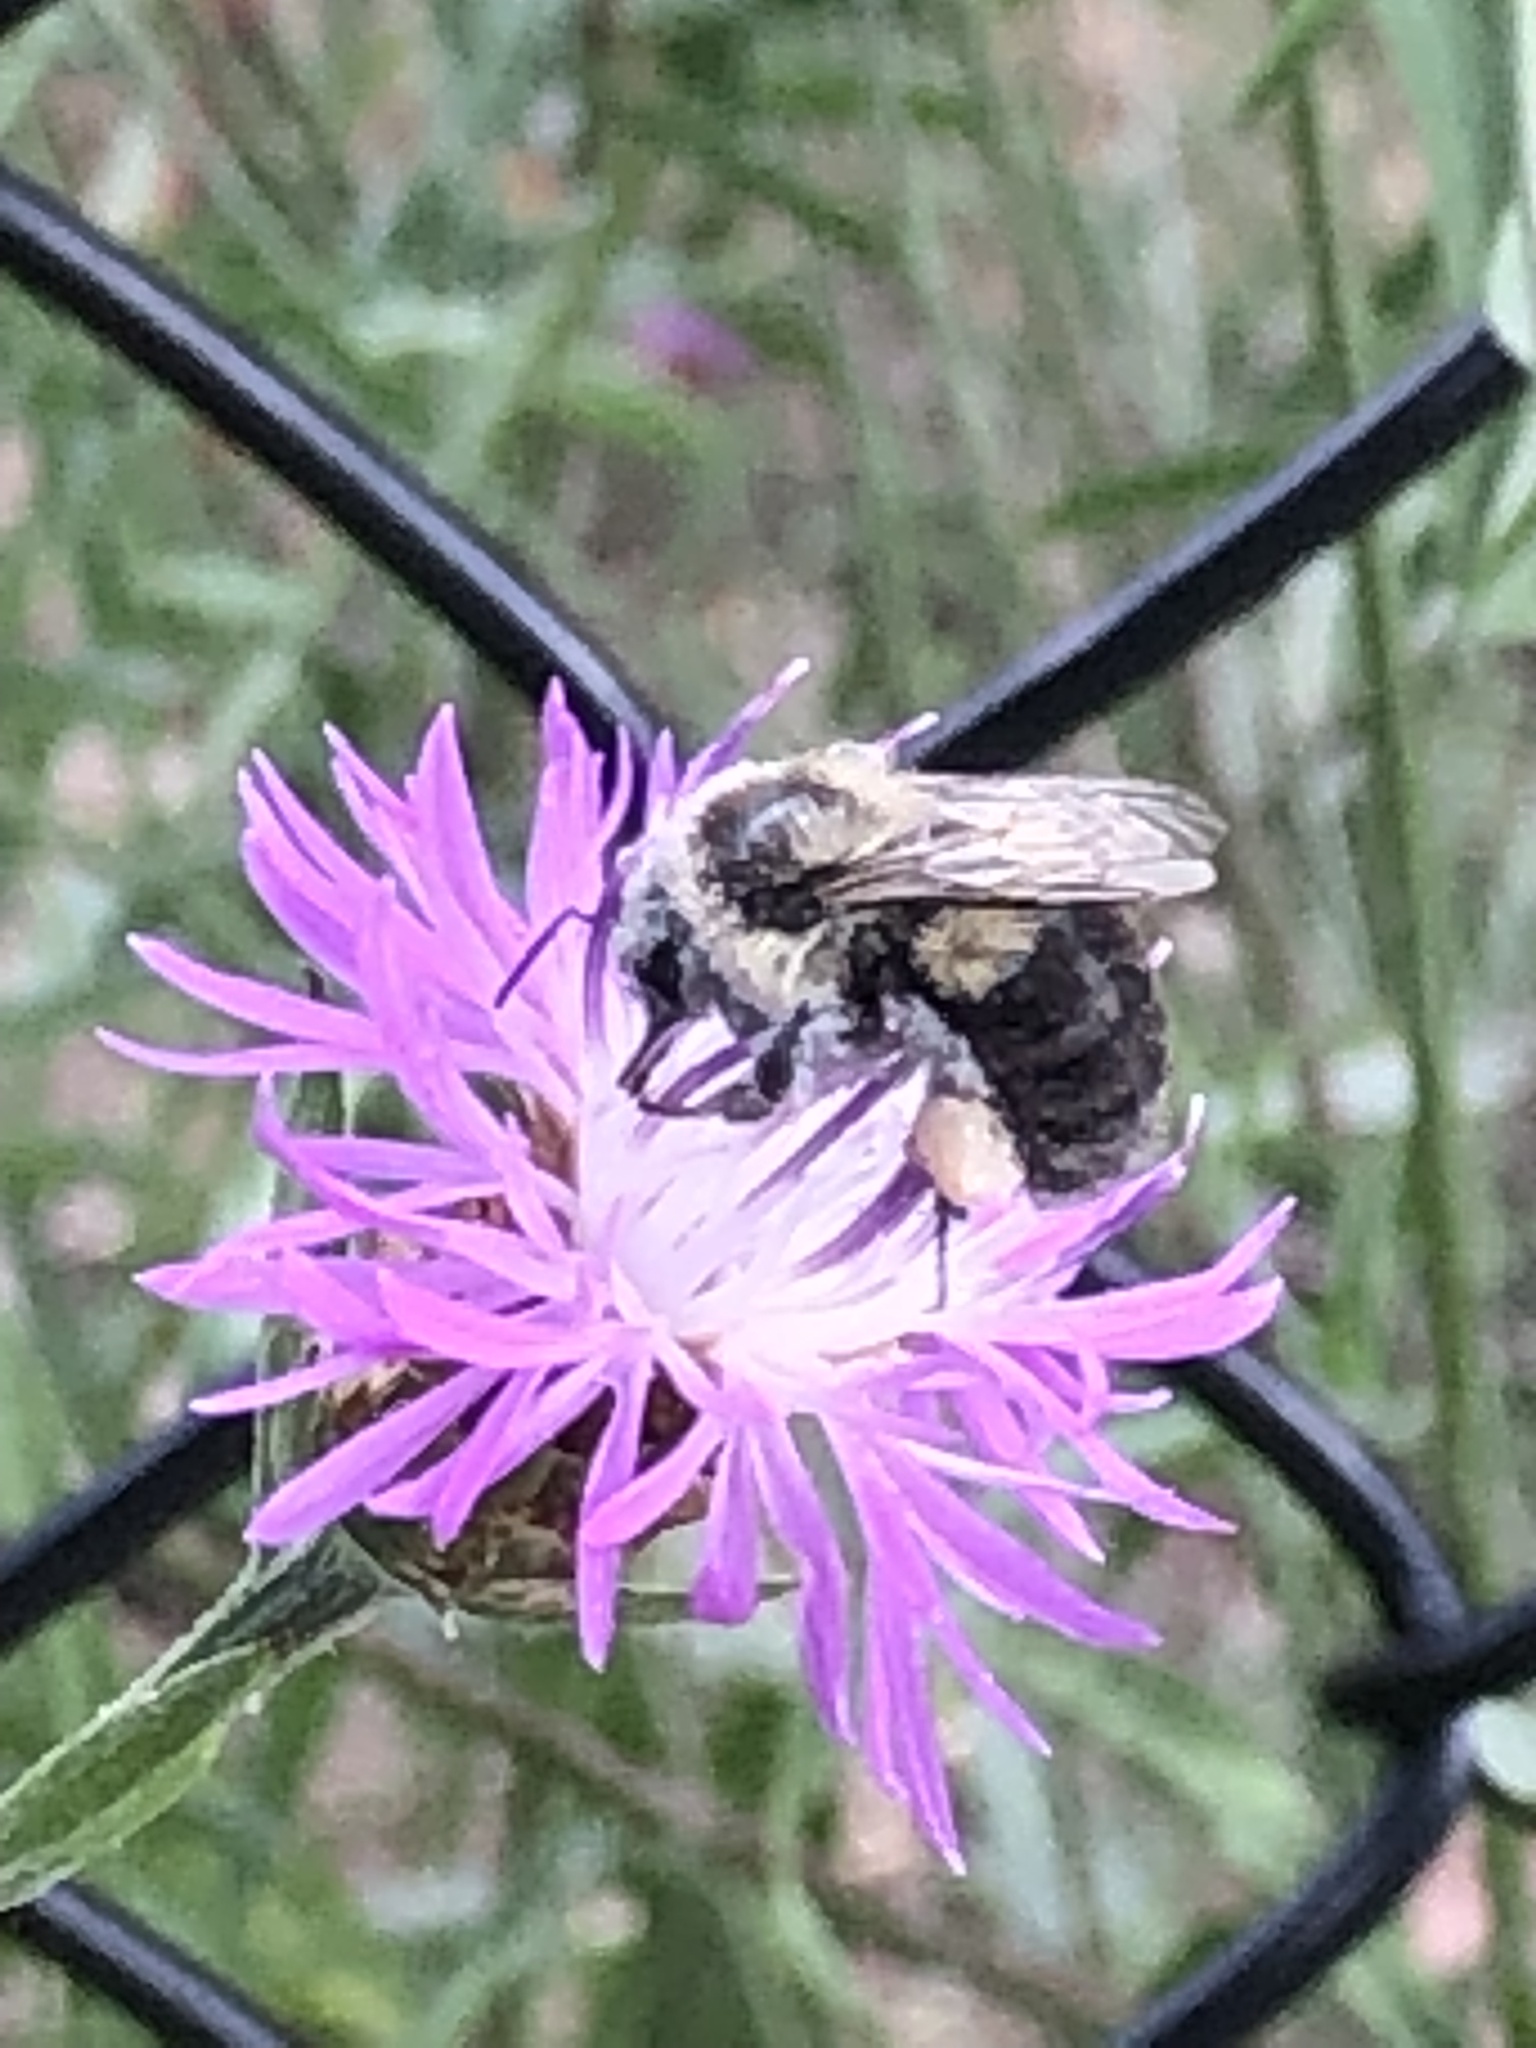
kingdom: Animalia
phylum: Arthropoda
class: Insecta
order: Hymenoptera
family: Apidae
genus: Bombus
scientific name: Bombus impatiens
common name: Common eastern bumble bee
